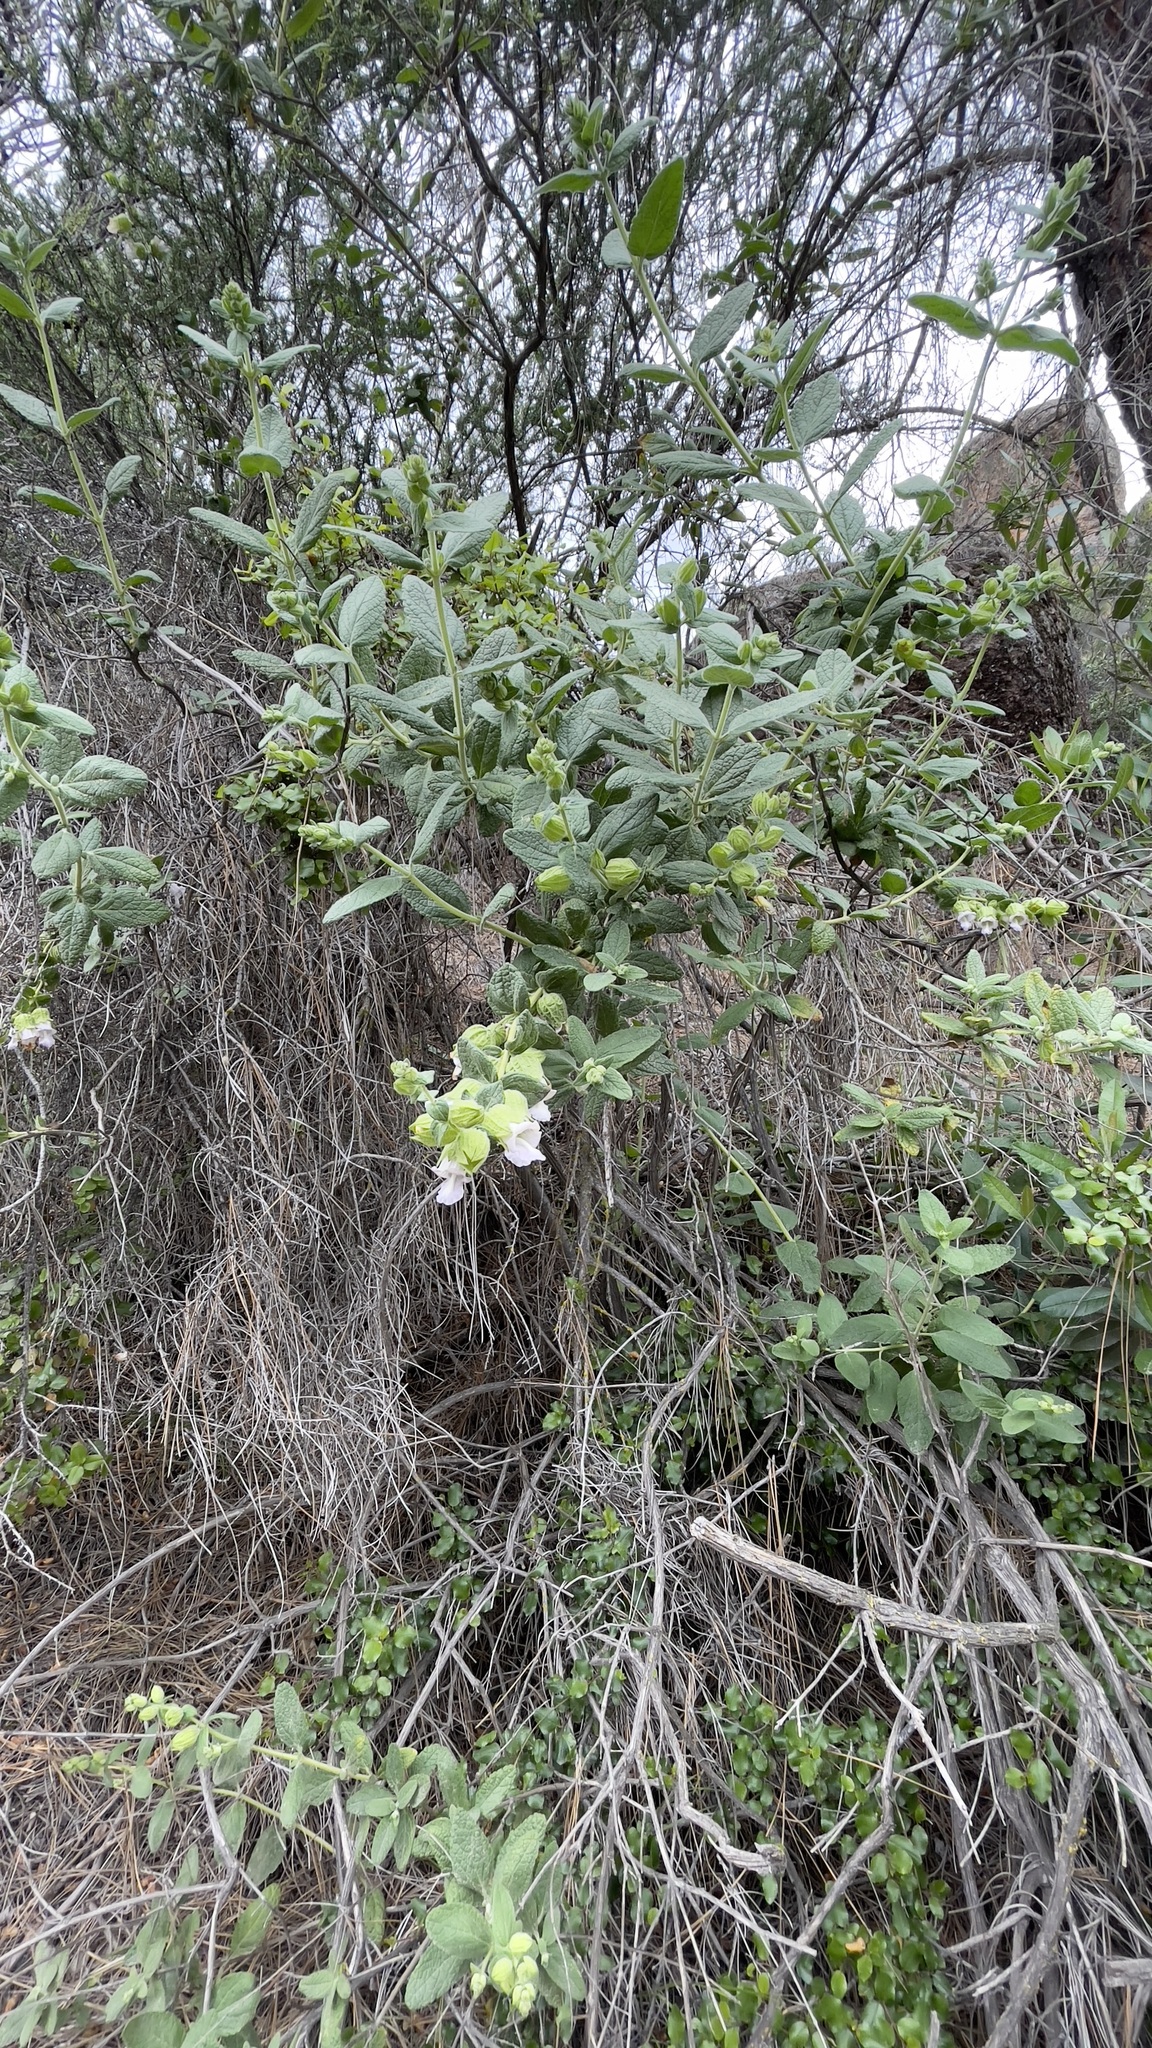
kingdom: Plantae
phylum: Tracheophyta
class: Magnoliopsida
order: Lamiales
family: Lamiaceae
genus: Lepechinia
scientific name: Lepechinia calycina
